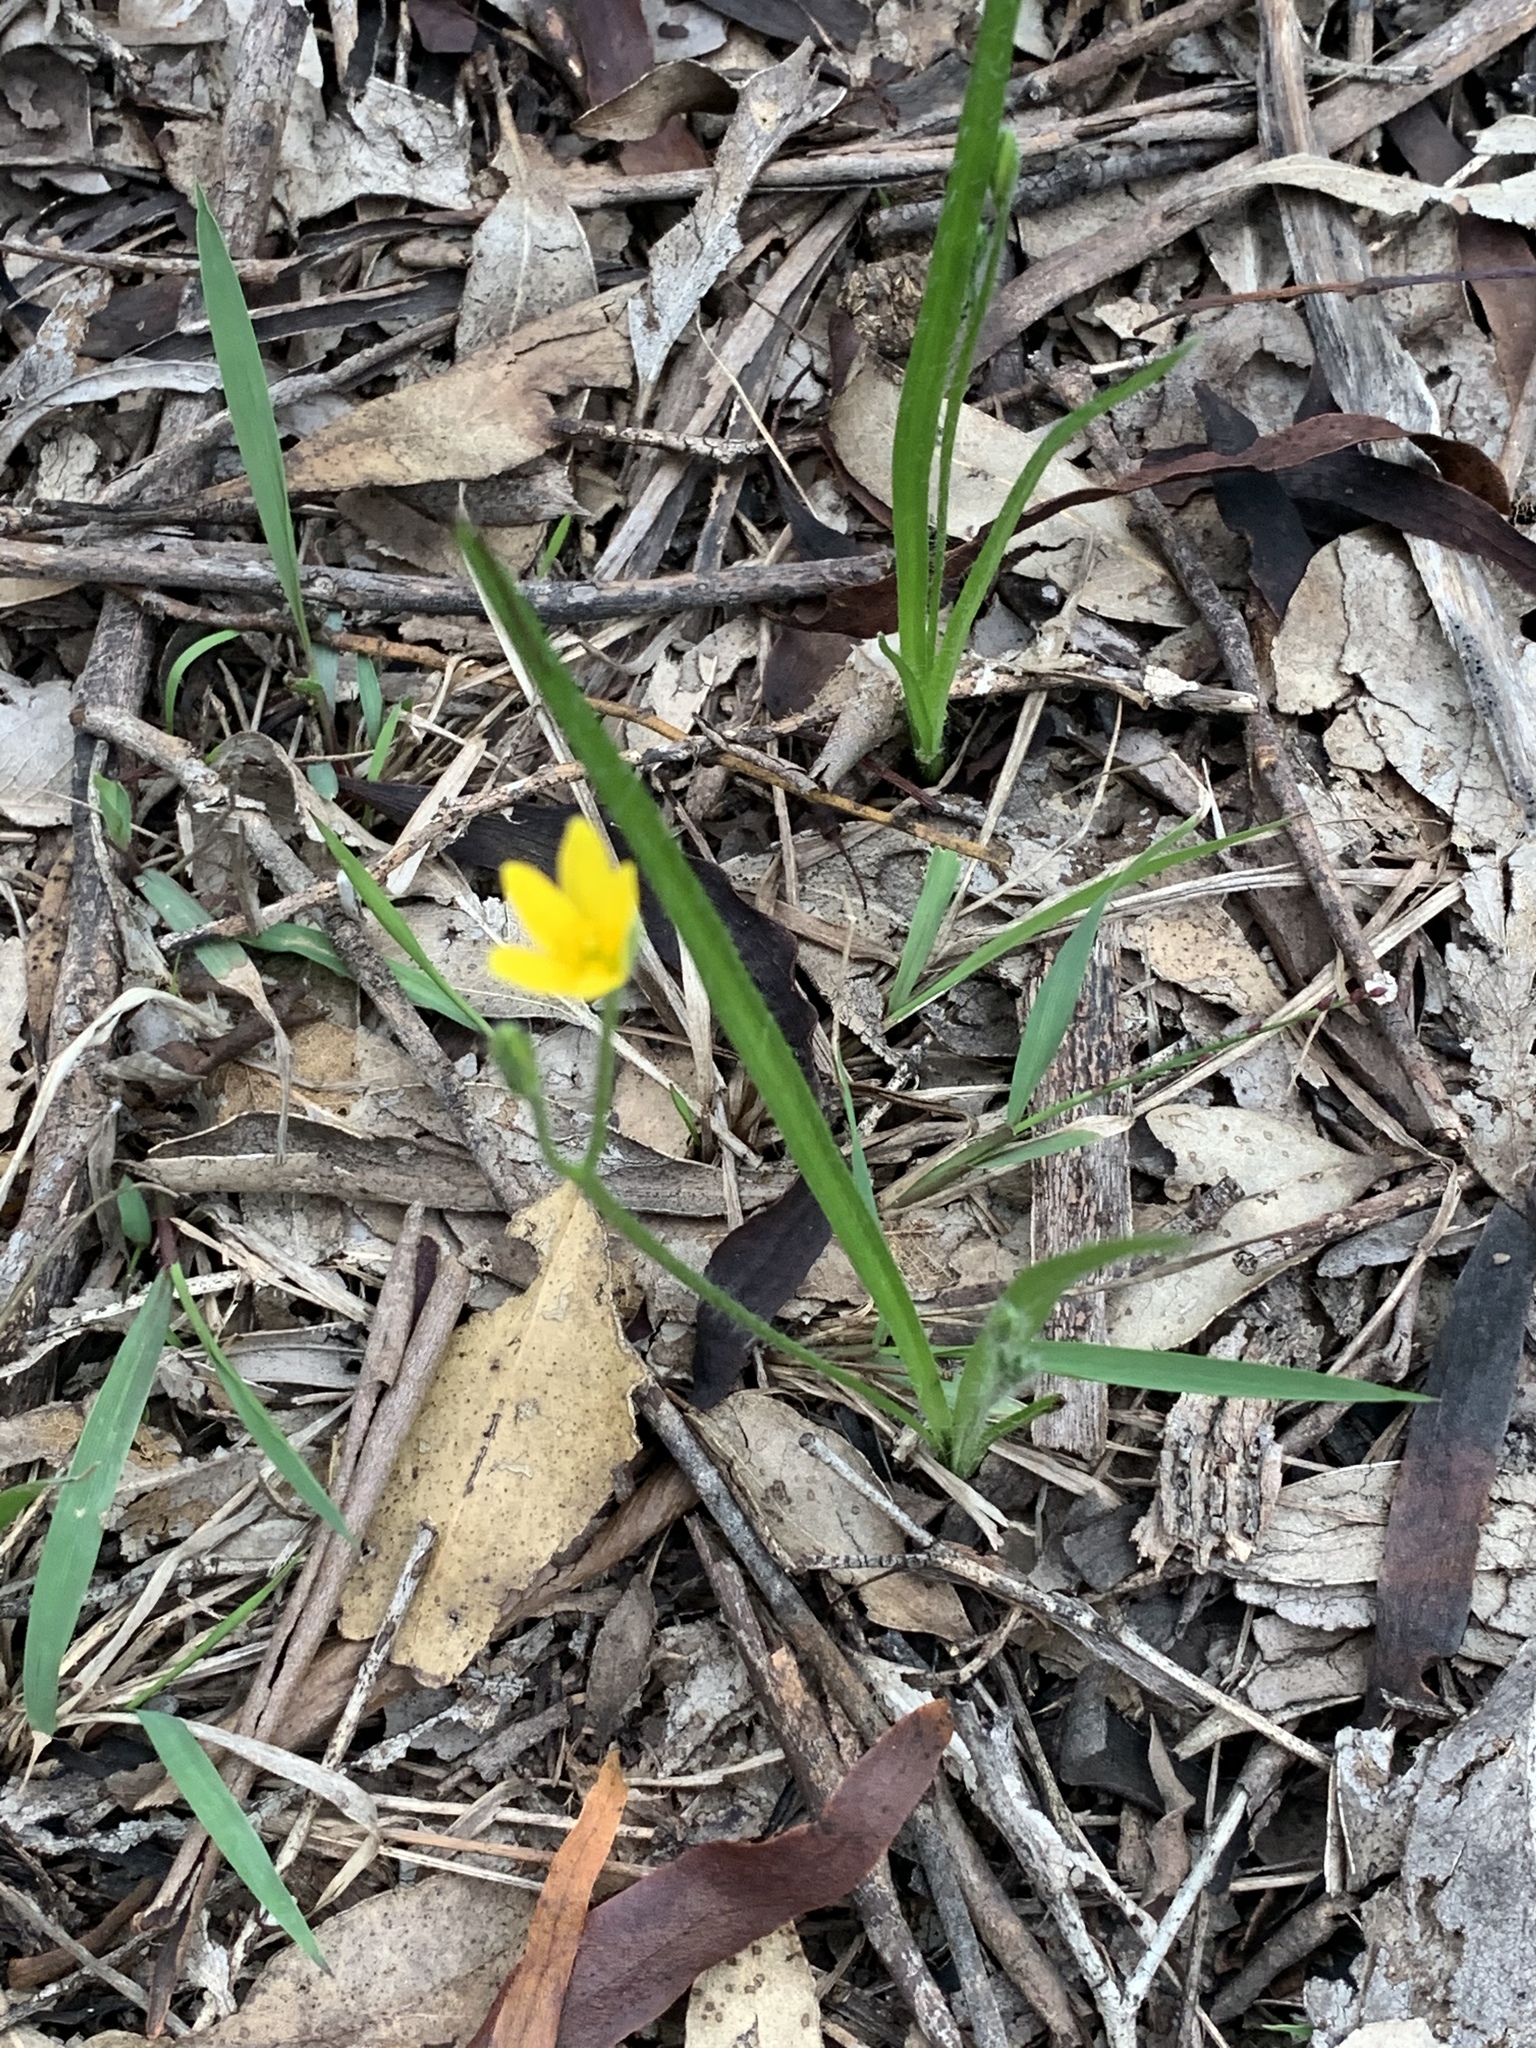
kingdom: Plantae
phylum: Tracheophyta
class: Liliopsida
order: Asparagales
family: Hypoxidaceae
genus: Hypoxis
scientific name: Hypoxis hygrometrica
